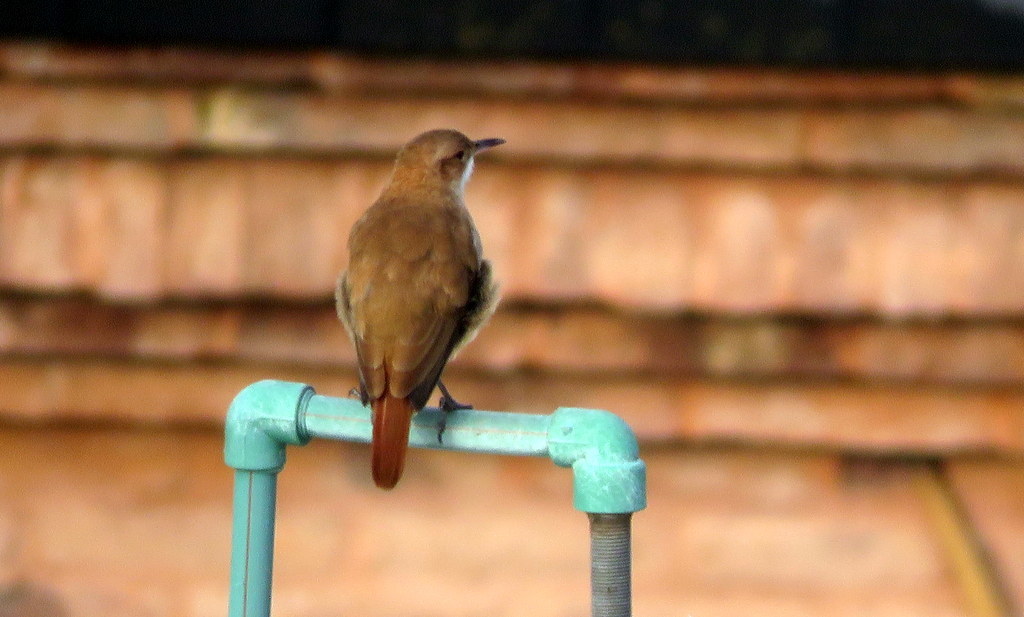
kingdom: Animalia
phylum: Chordata
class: Aves
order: Passeriformes
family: Furnariidae
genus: Furnarius
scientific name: Furnarius rufus
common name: Rufous hornero
